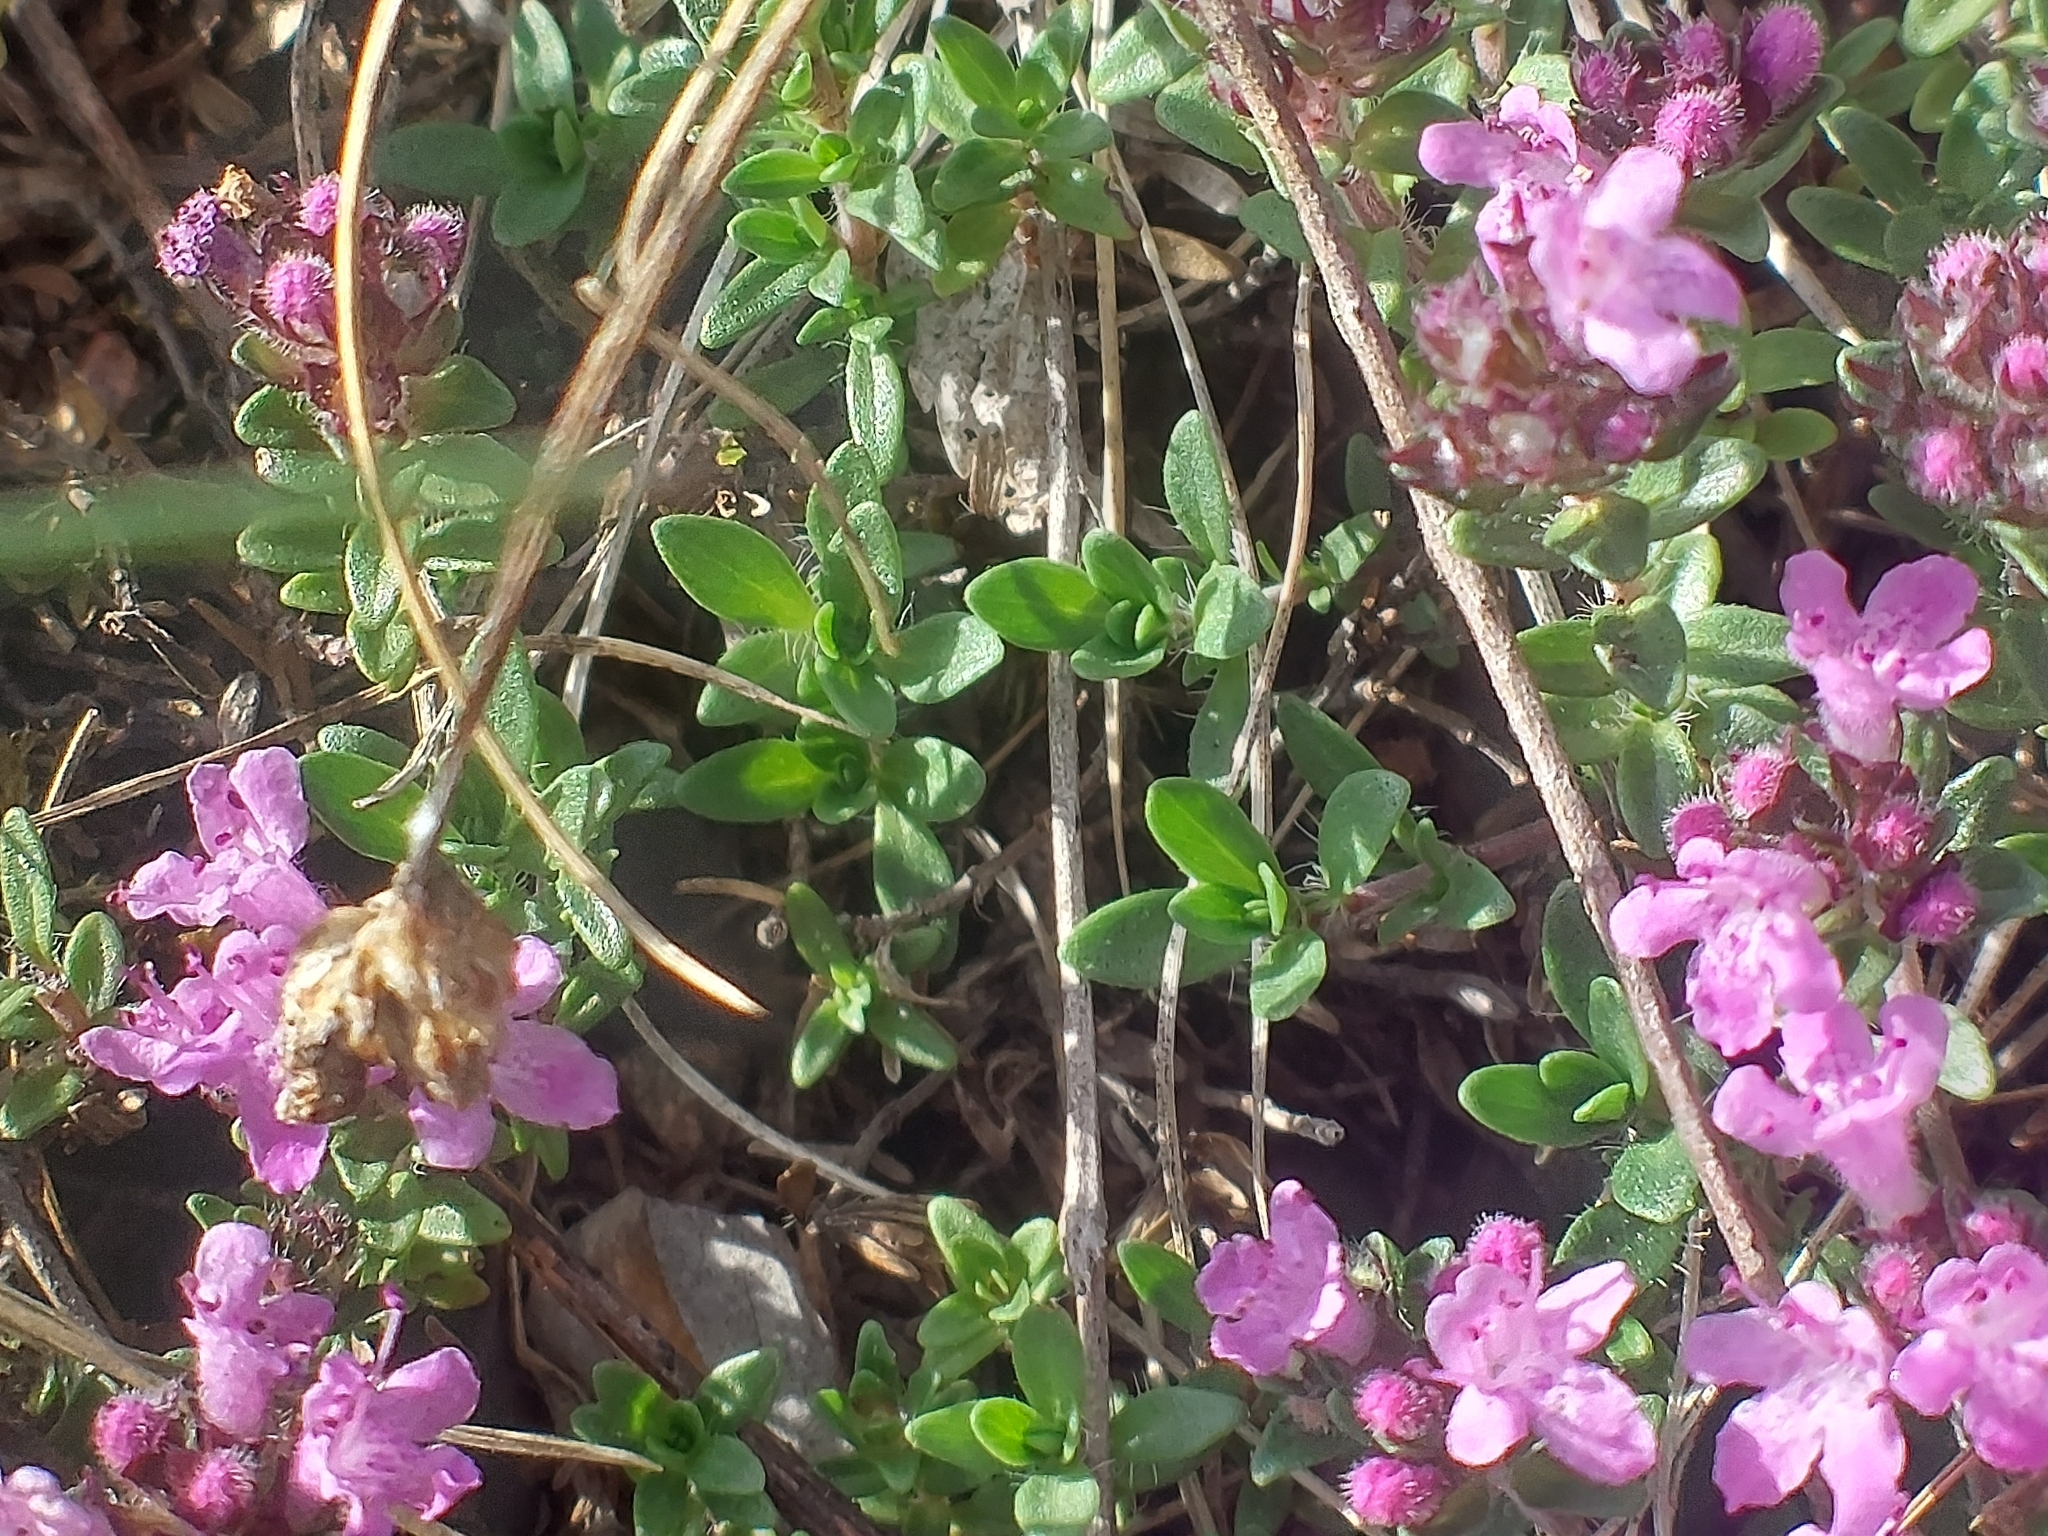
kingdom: Plantae
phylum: Tracheophyta
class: Magnoliopsida
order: Lamiales
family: Lamiaceae
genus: Thymus
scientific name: Thymus serpyllum
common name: Breckland thyme
